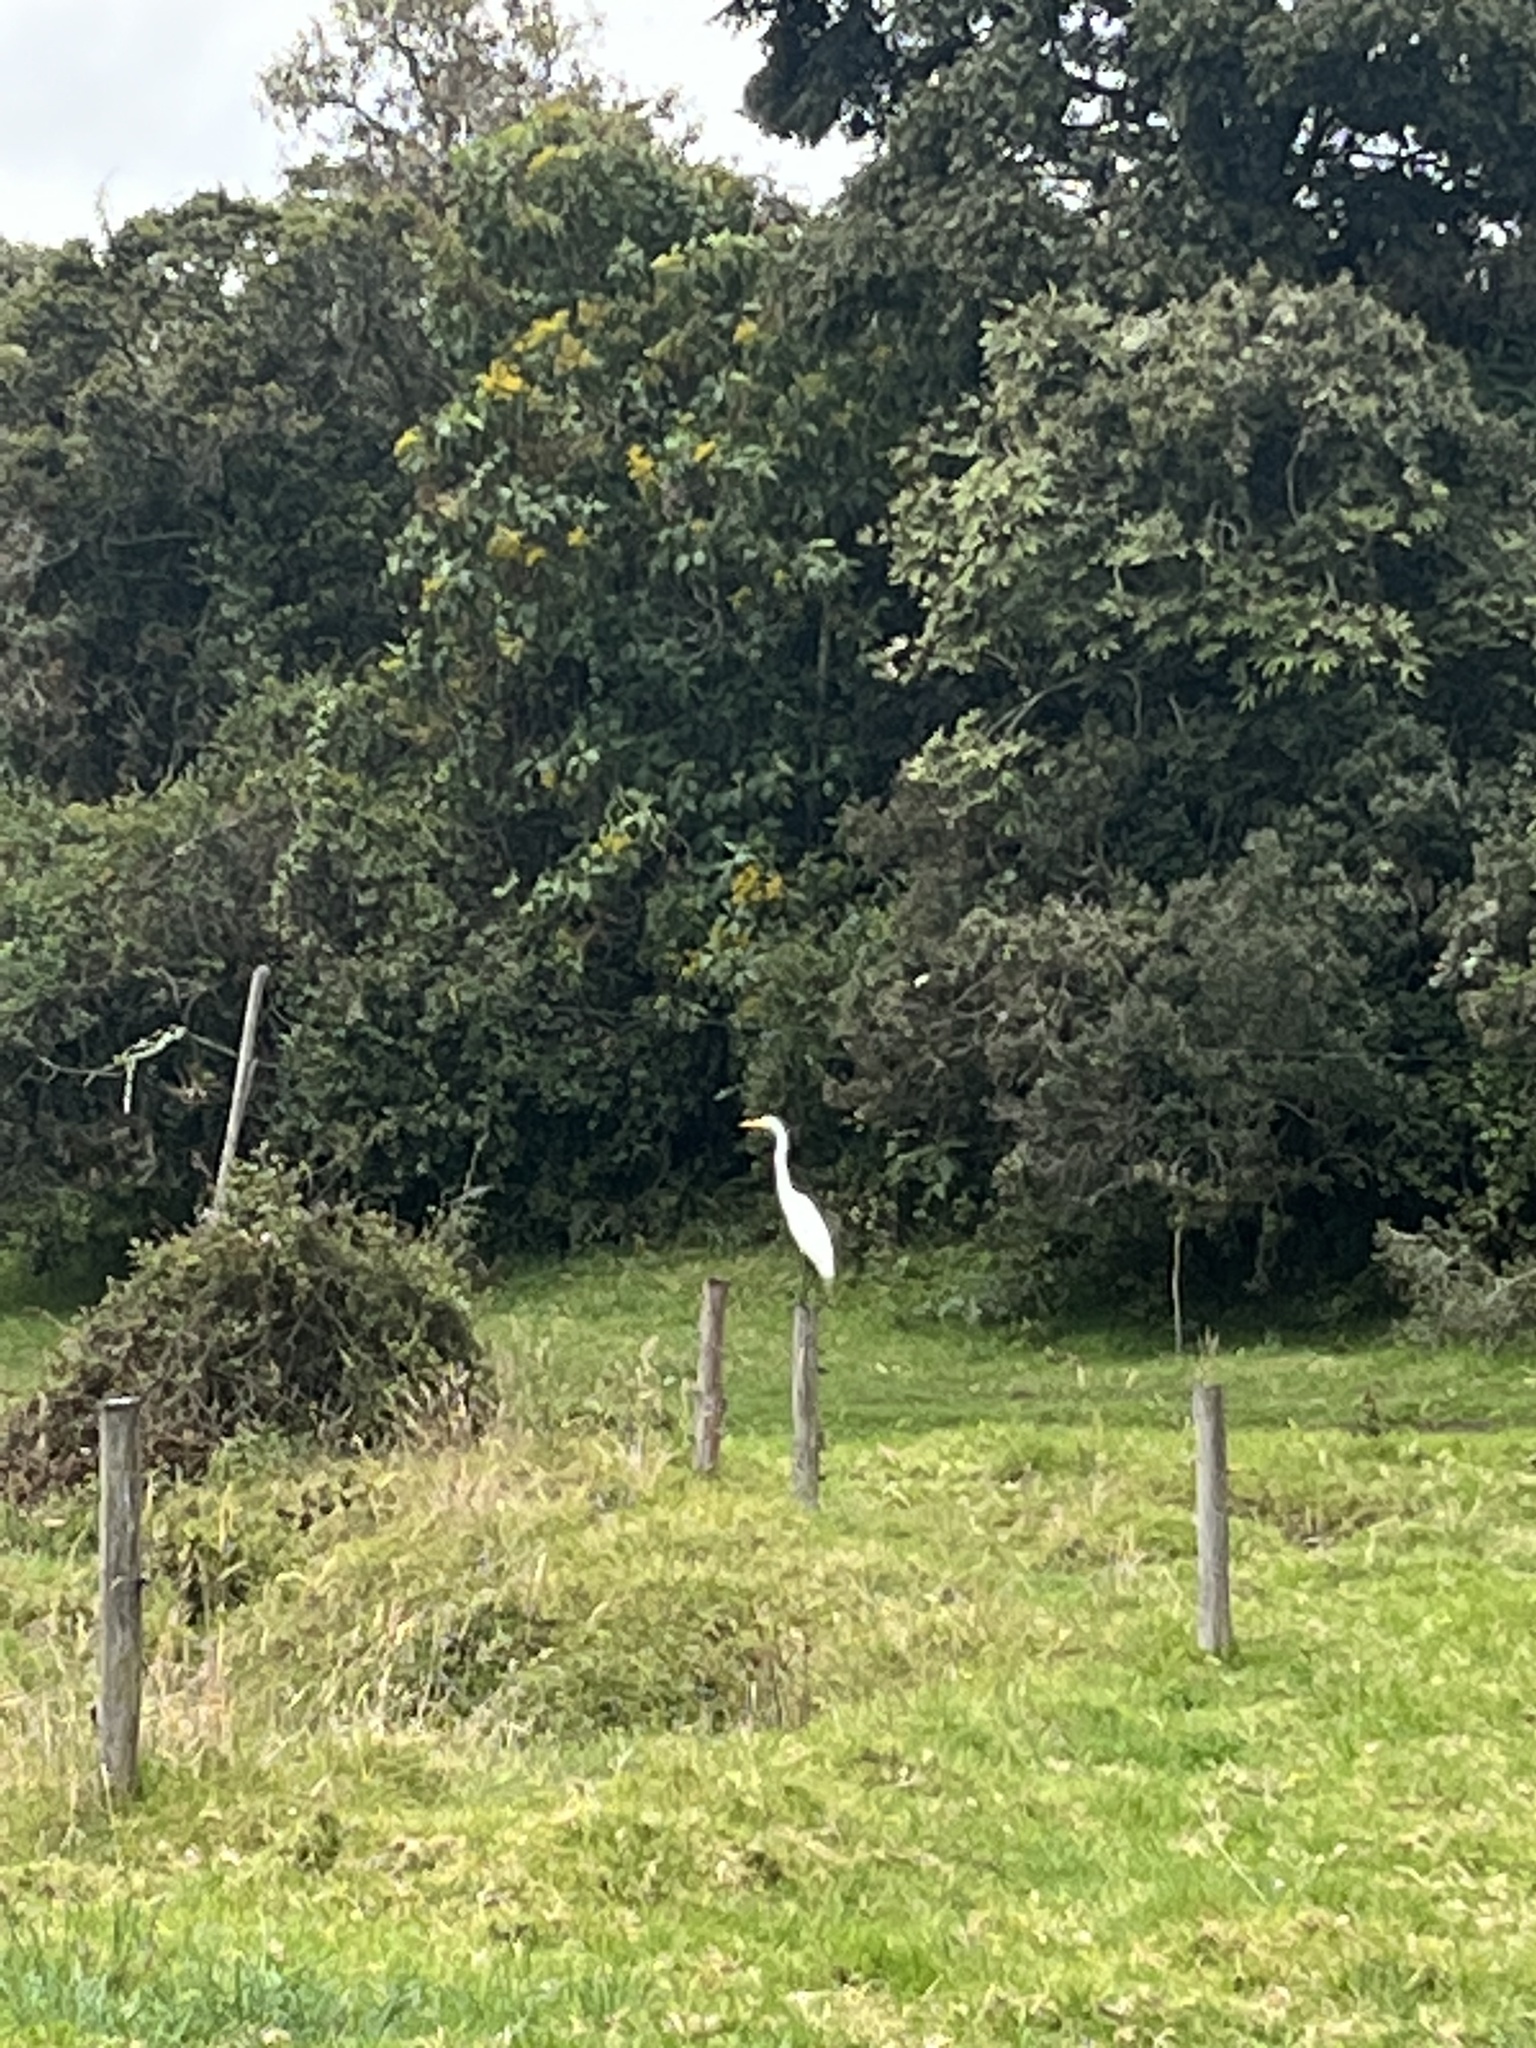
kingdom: Animalia
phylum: Chordata
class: Aves
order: Pelecaniformes
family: Ardeidae
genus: Ardea
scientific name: Ardea alba
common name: Great egret
